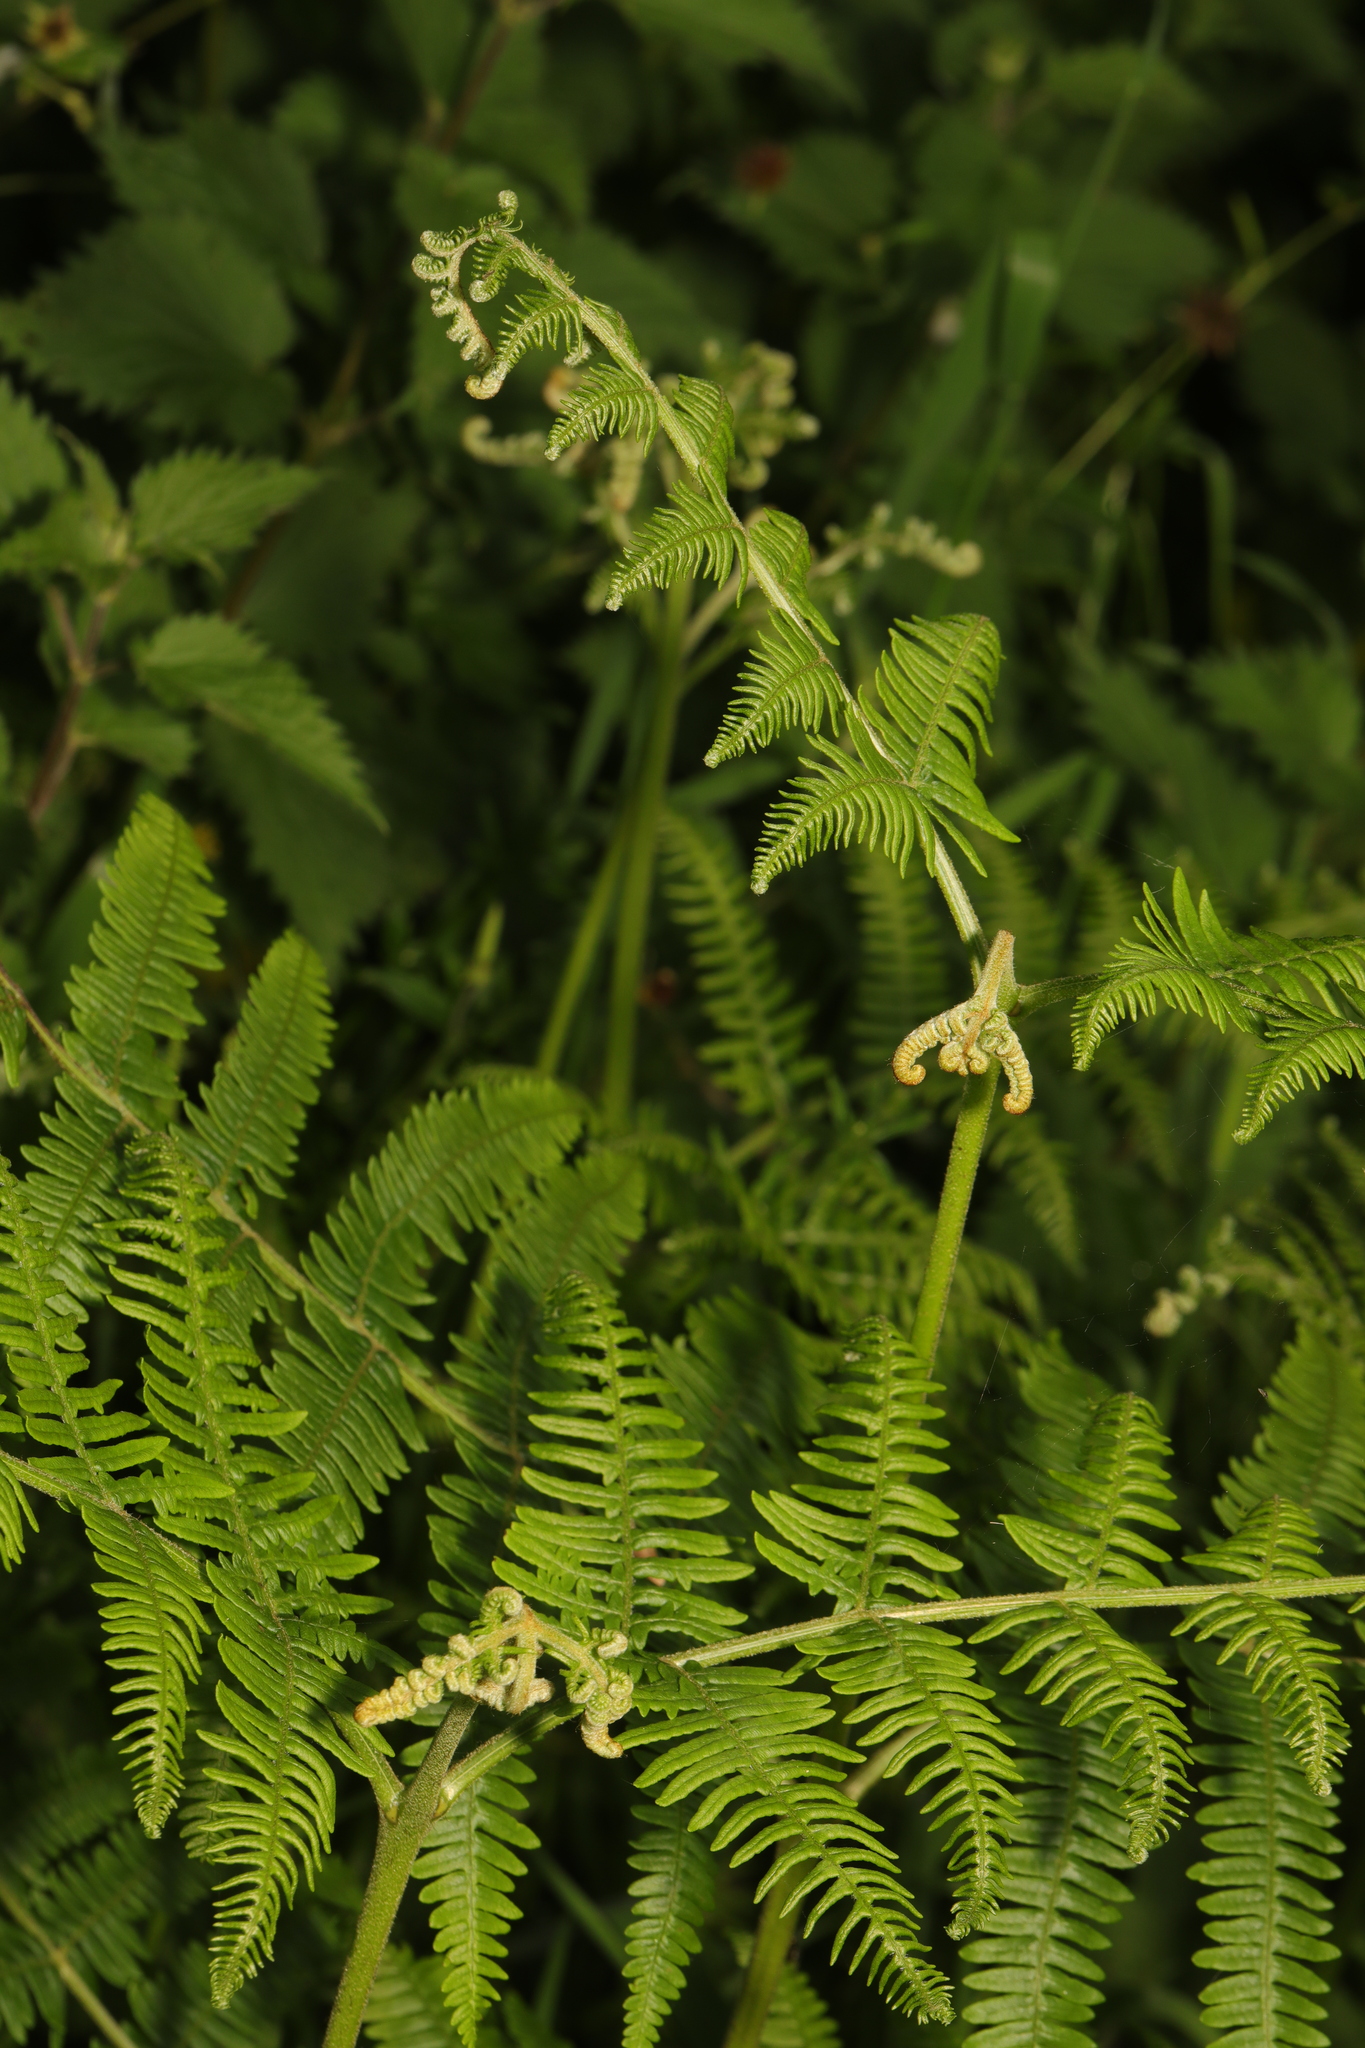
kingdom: Plantae
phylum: Tracheophyta
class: Polypodiopsida
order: Polypodiales
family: Dennstaedtiaceae
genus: Pteridium
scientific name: Pteridium aquilinum
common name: Bracken
